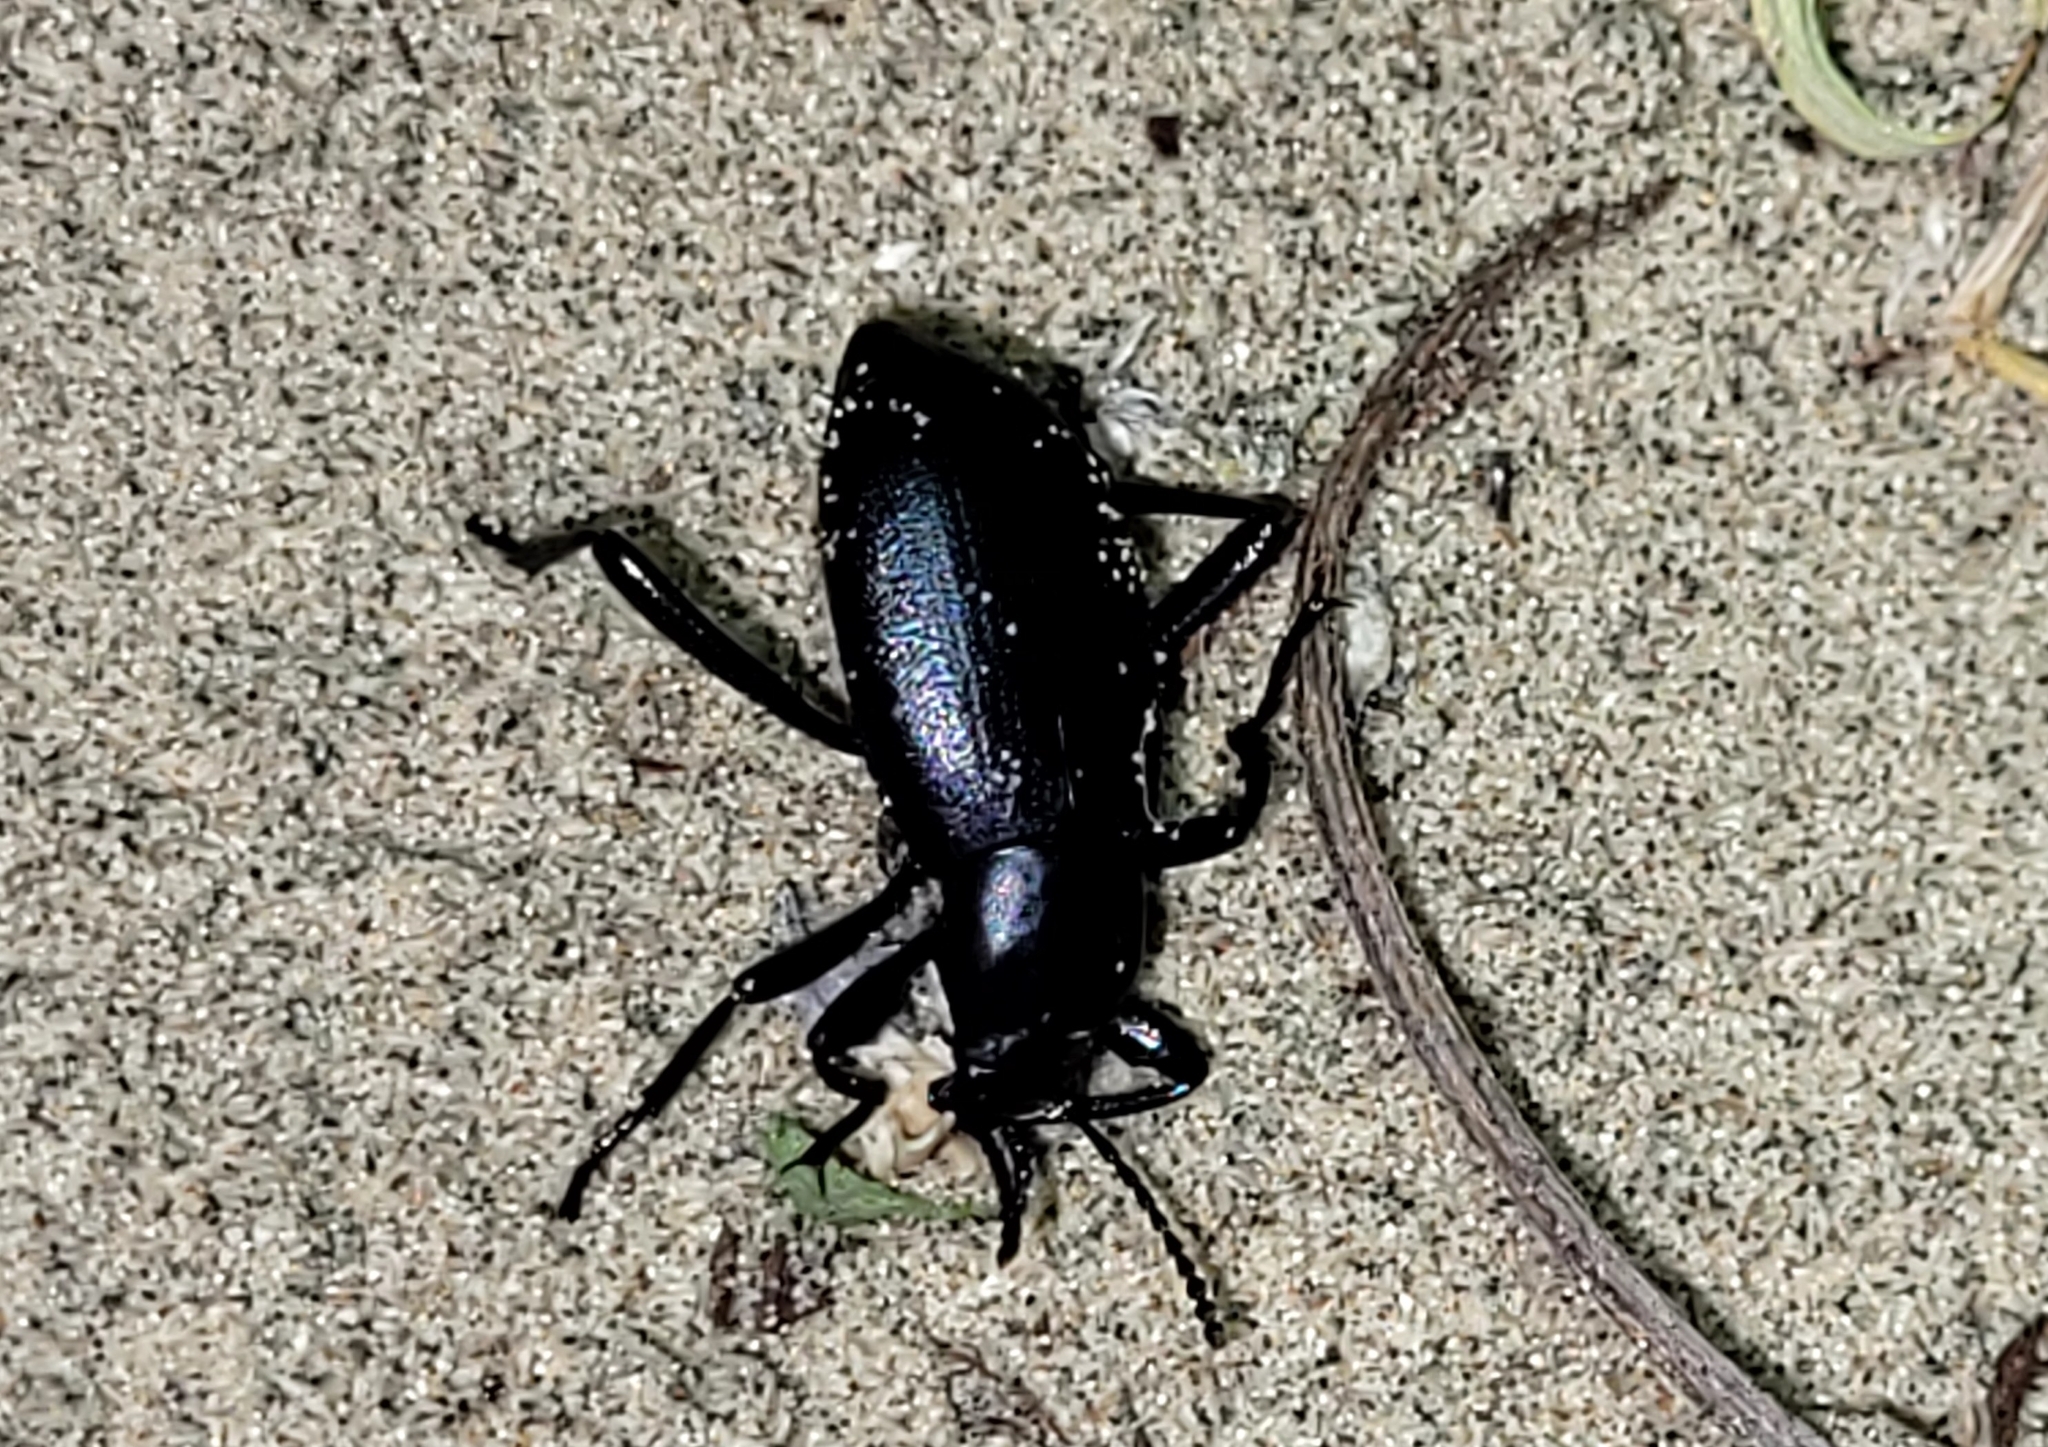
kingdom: Animalia
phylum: Arthropoda
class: Insecta
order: Coleoptera
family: Tenebrionidae
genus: Eleodes
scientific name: Eleodes extricata
